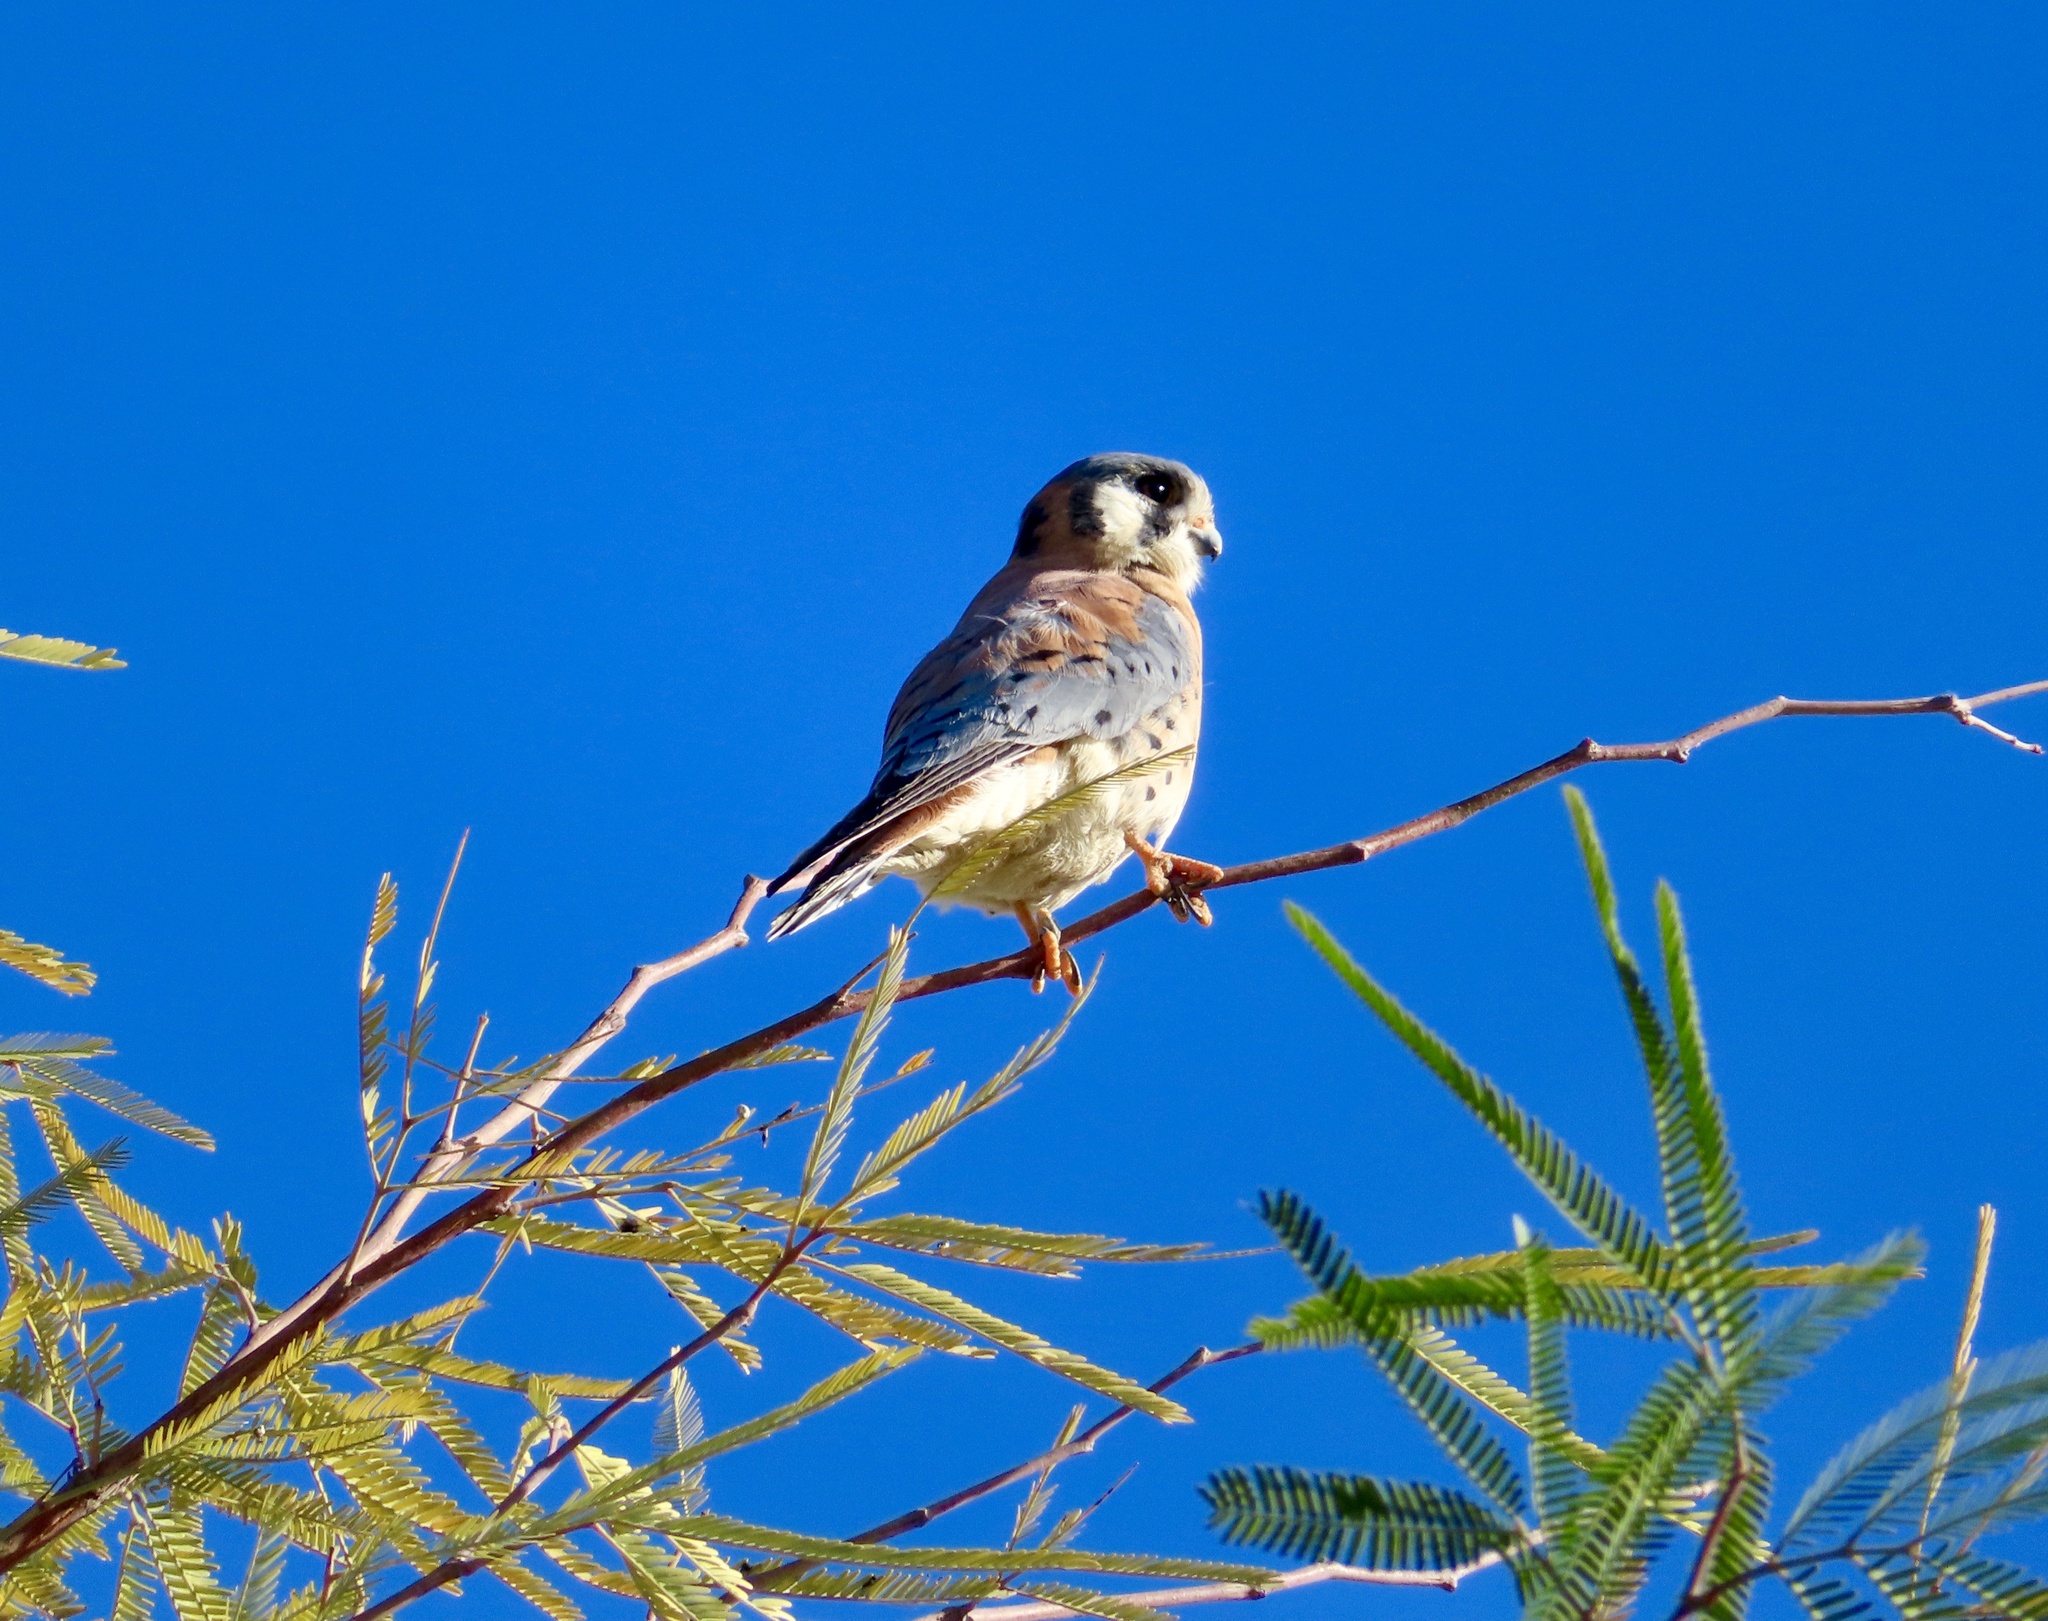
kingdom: Animalia
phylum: Chordata
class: Aves
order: Falconiformes
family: Falconidae
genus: Falco
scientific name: Falco sparverius
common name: American kestrel
